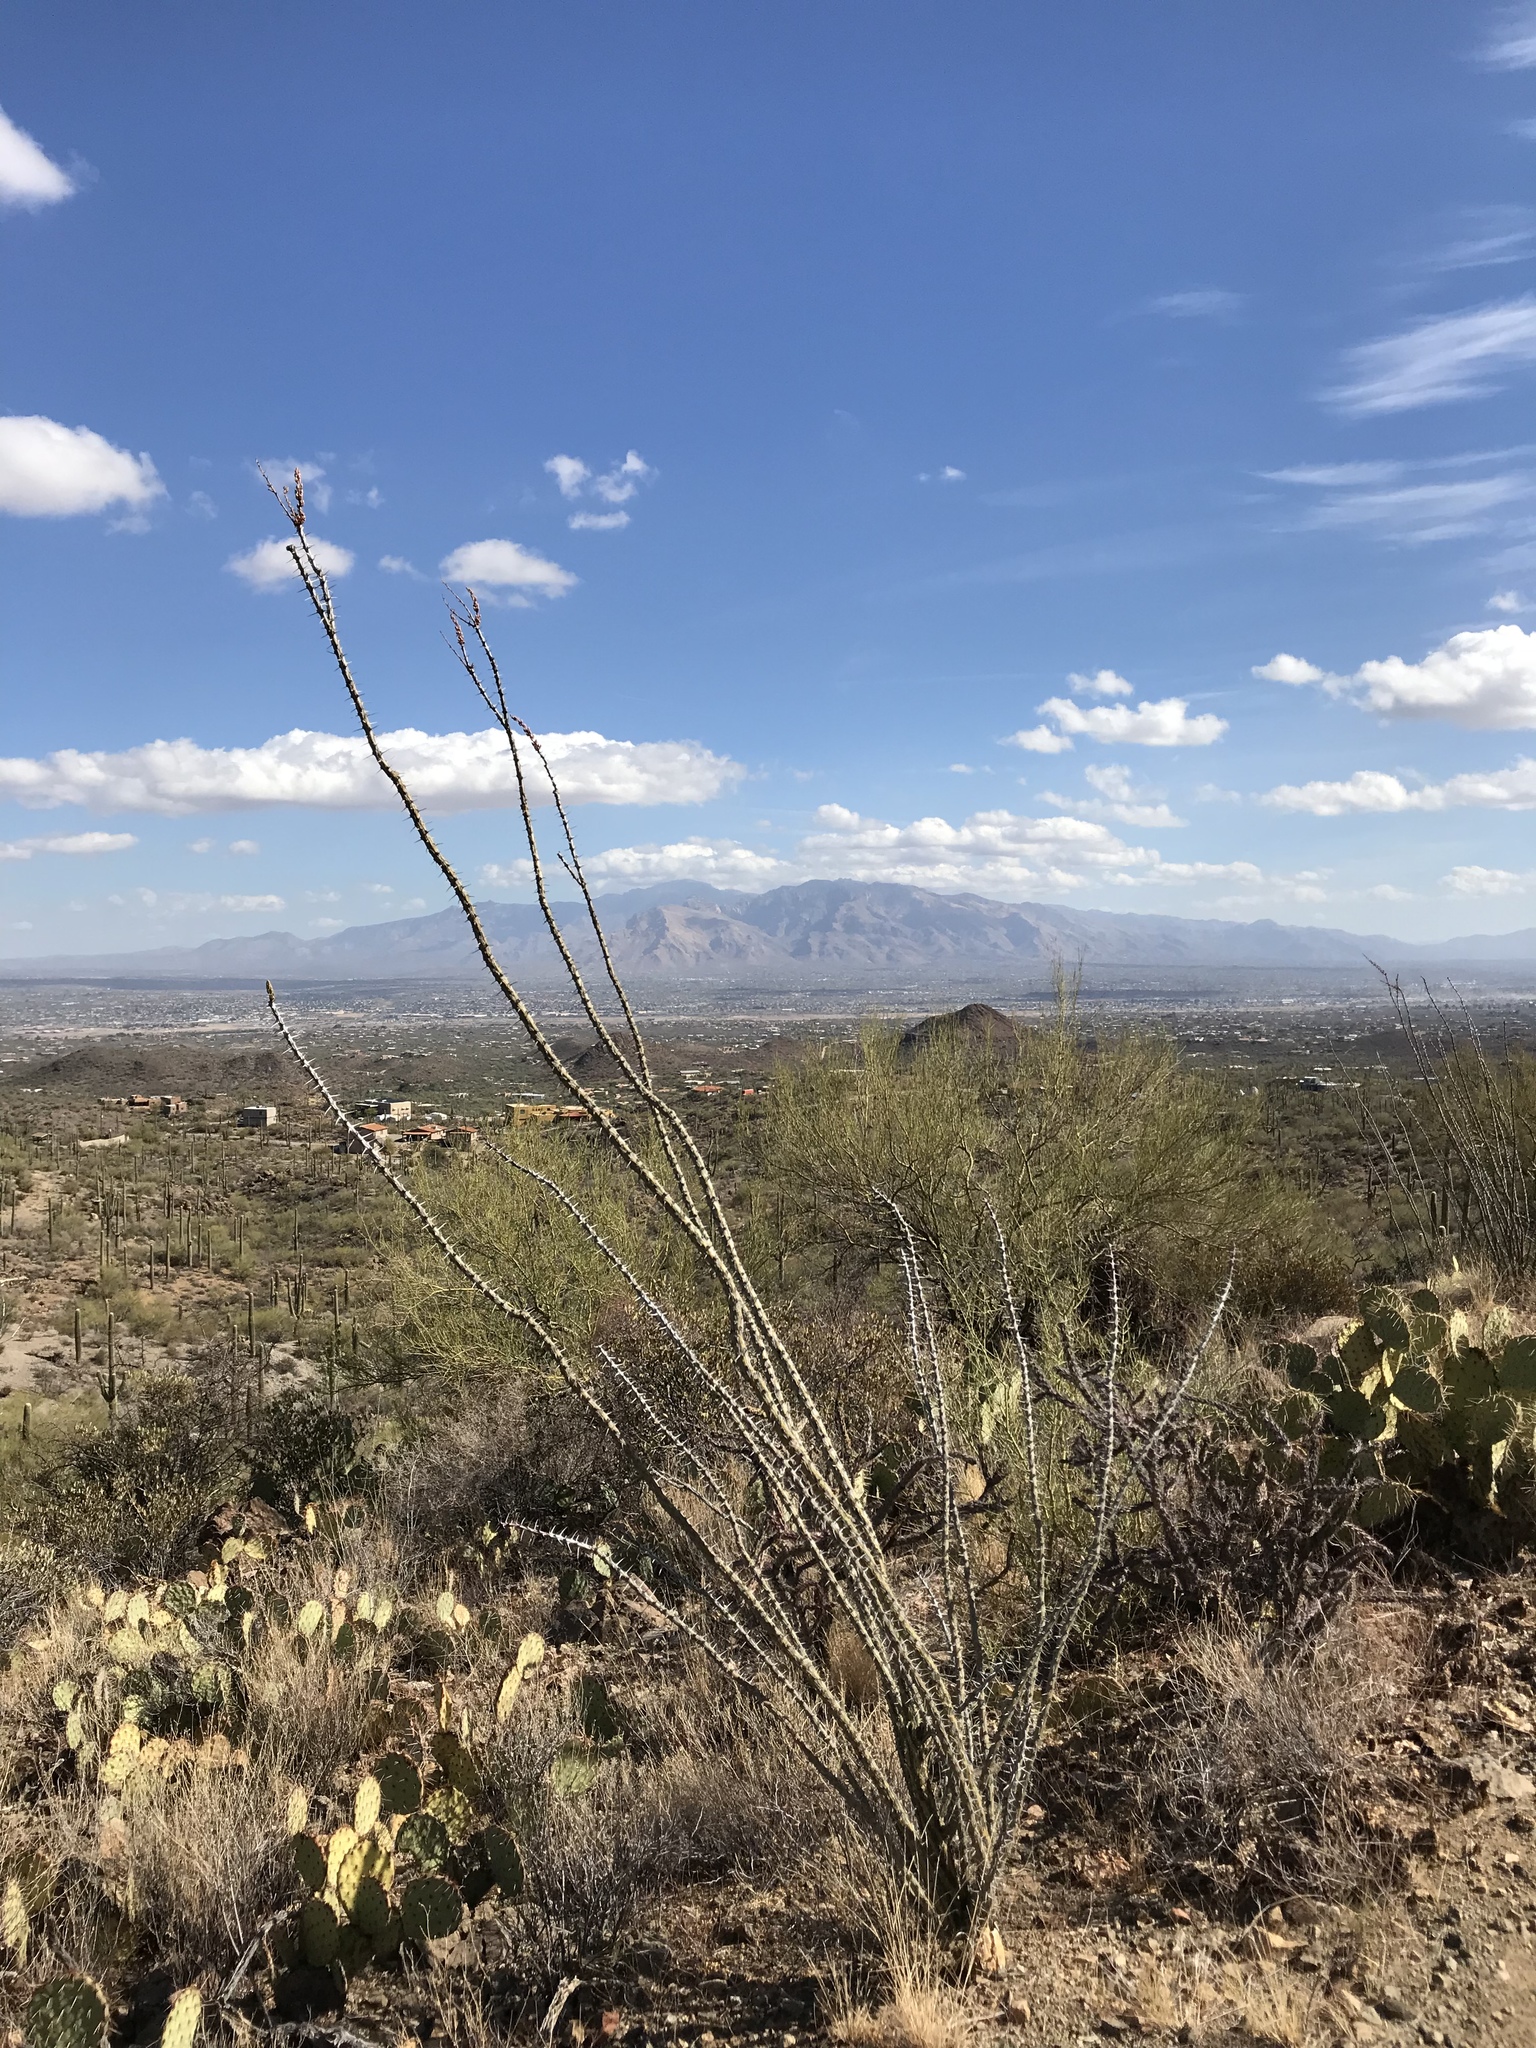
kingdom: Plantae
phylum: Tracheophyta
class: Magnoliopsida
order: Ericales
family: Fouquieriaceae
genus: Fouquieria
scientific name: Fouquieria splendens
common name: Vine-cactus
